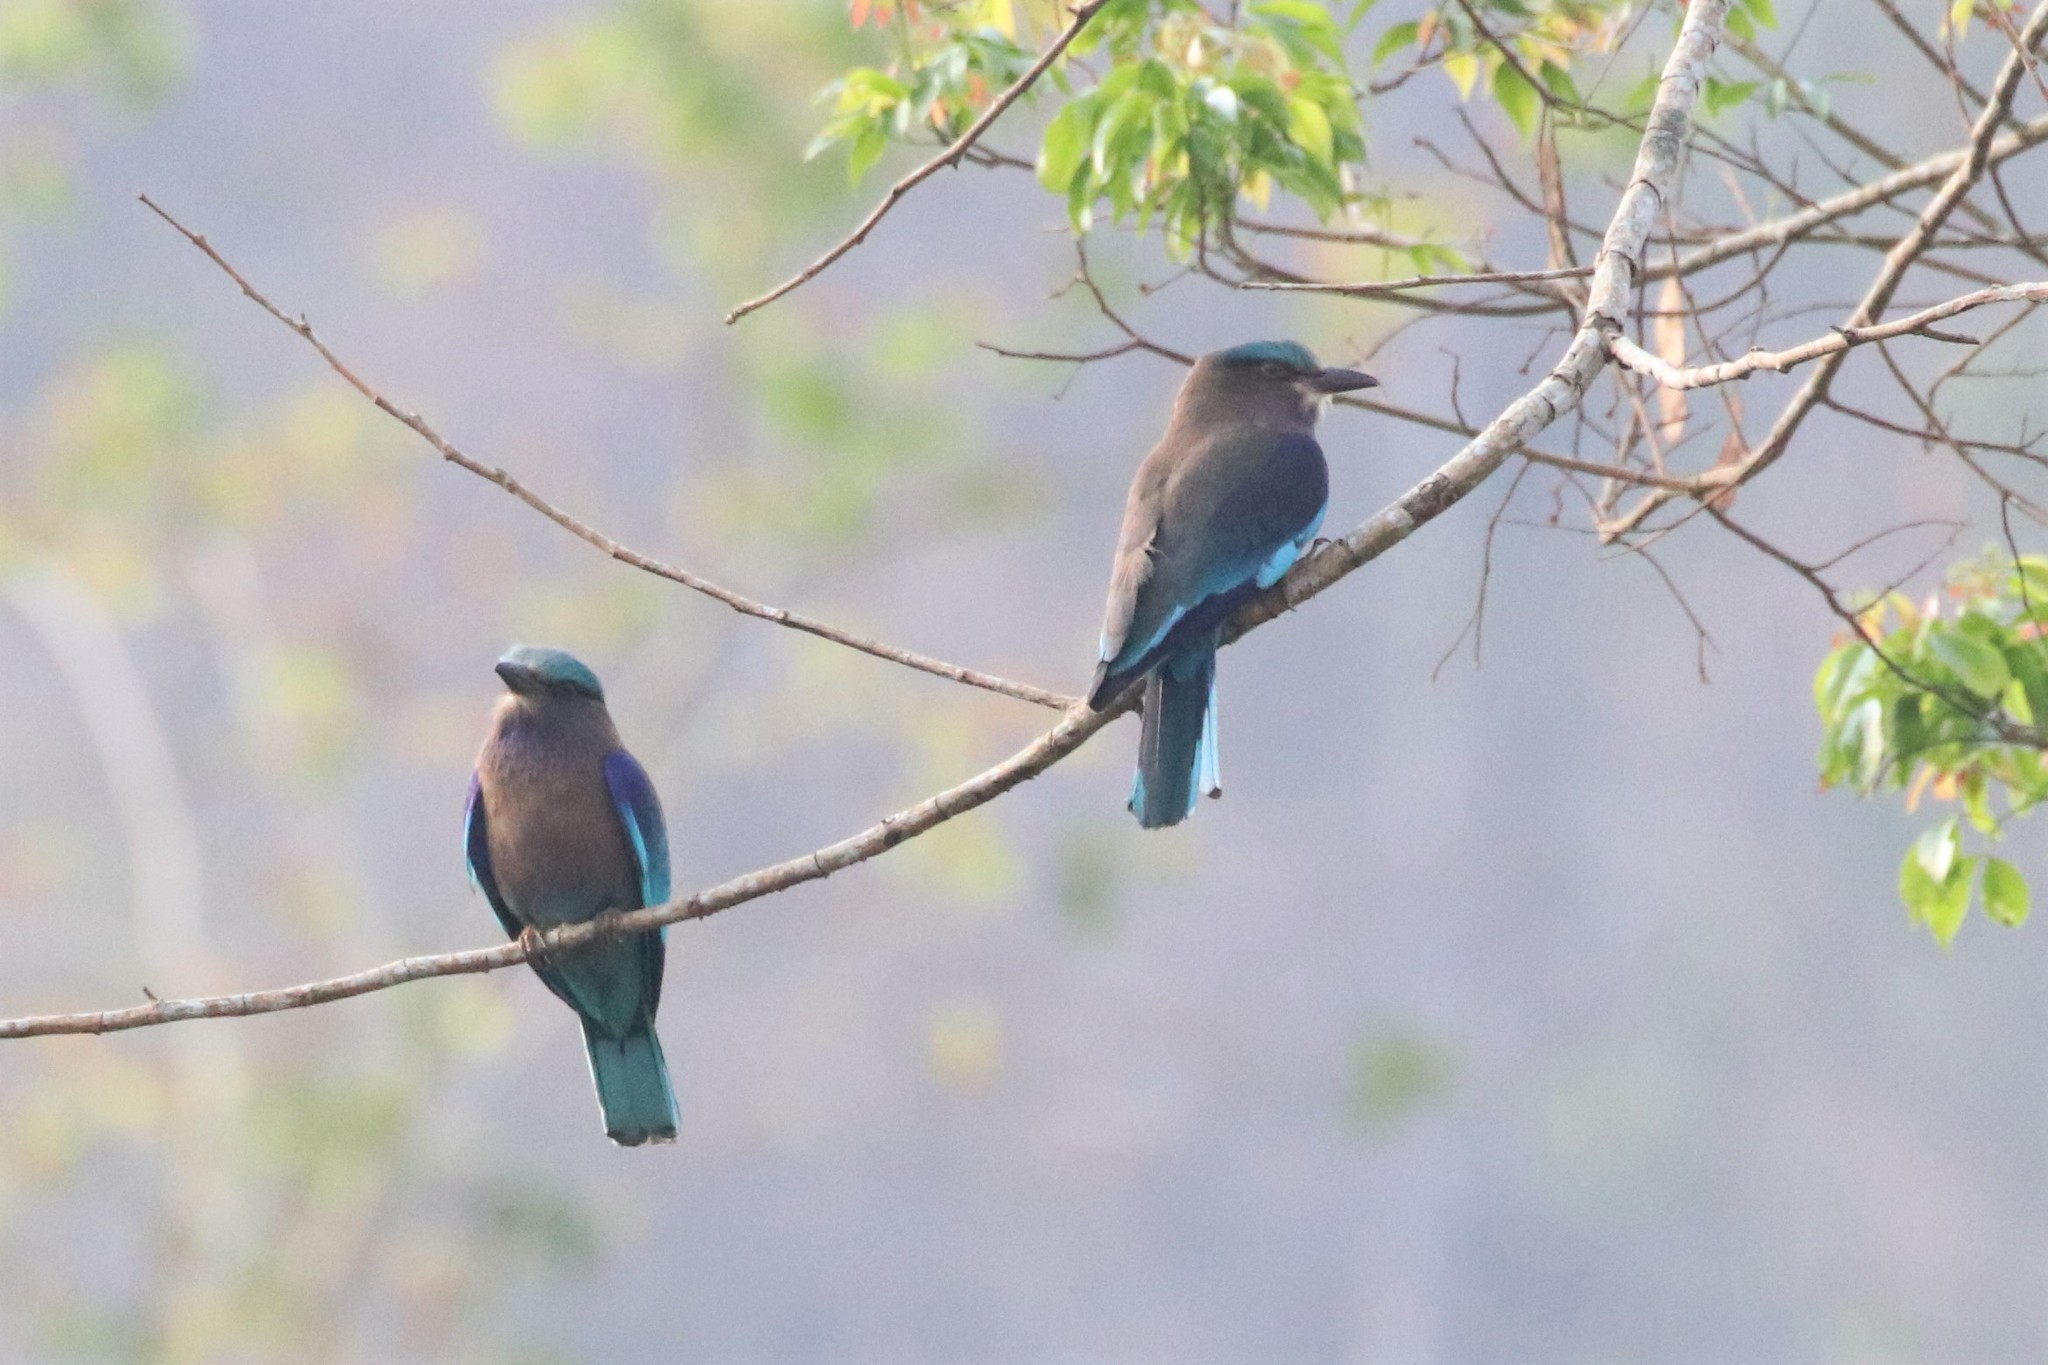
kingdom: Animalia
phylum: Chordata
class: Aves
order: Coraciiformes
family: Coraciidae
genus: Coracias
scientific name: Coracias affinis
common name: Indochinese roller
